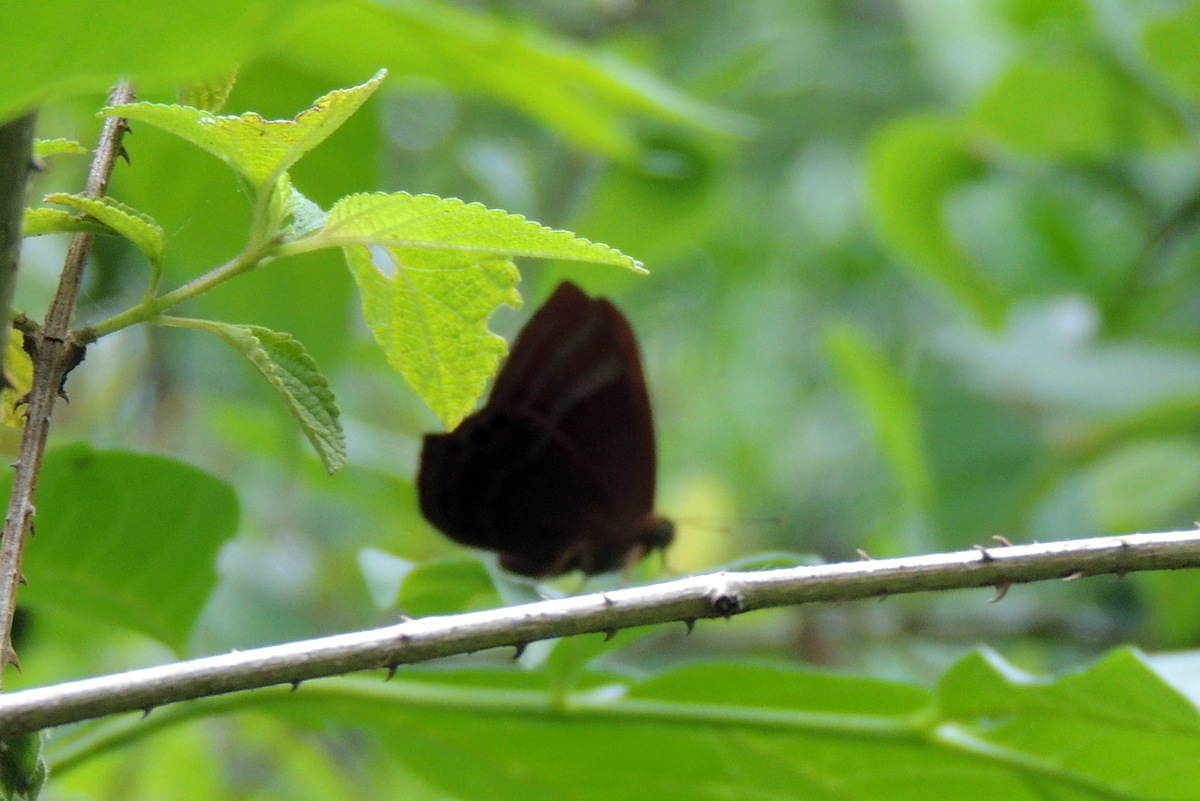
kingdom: Animalia
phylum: Arthropoda
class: Insecta
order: Lepidoptera
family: Lycaenidae
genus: Abisara
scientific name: Abisara bifasciata
